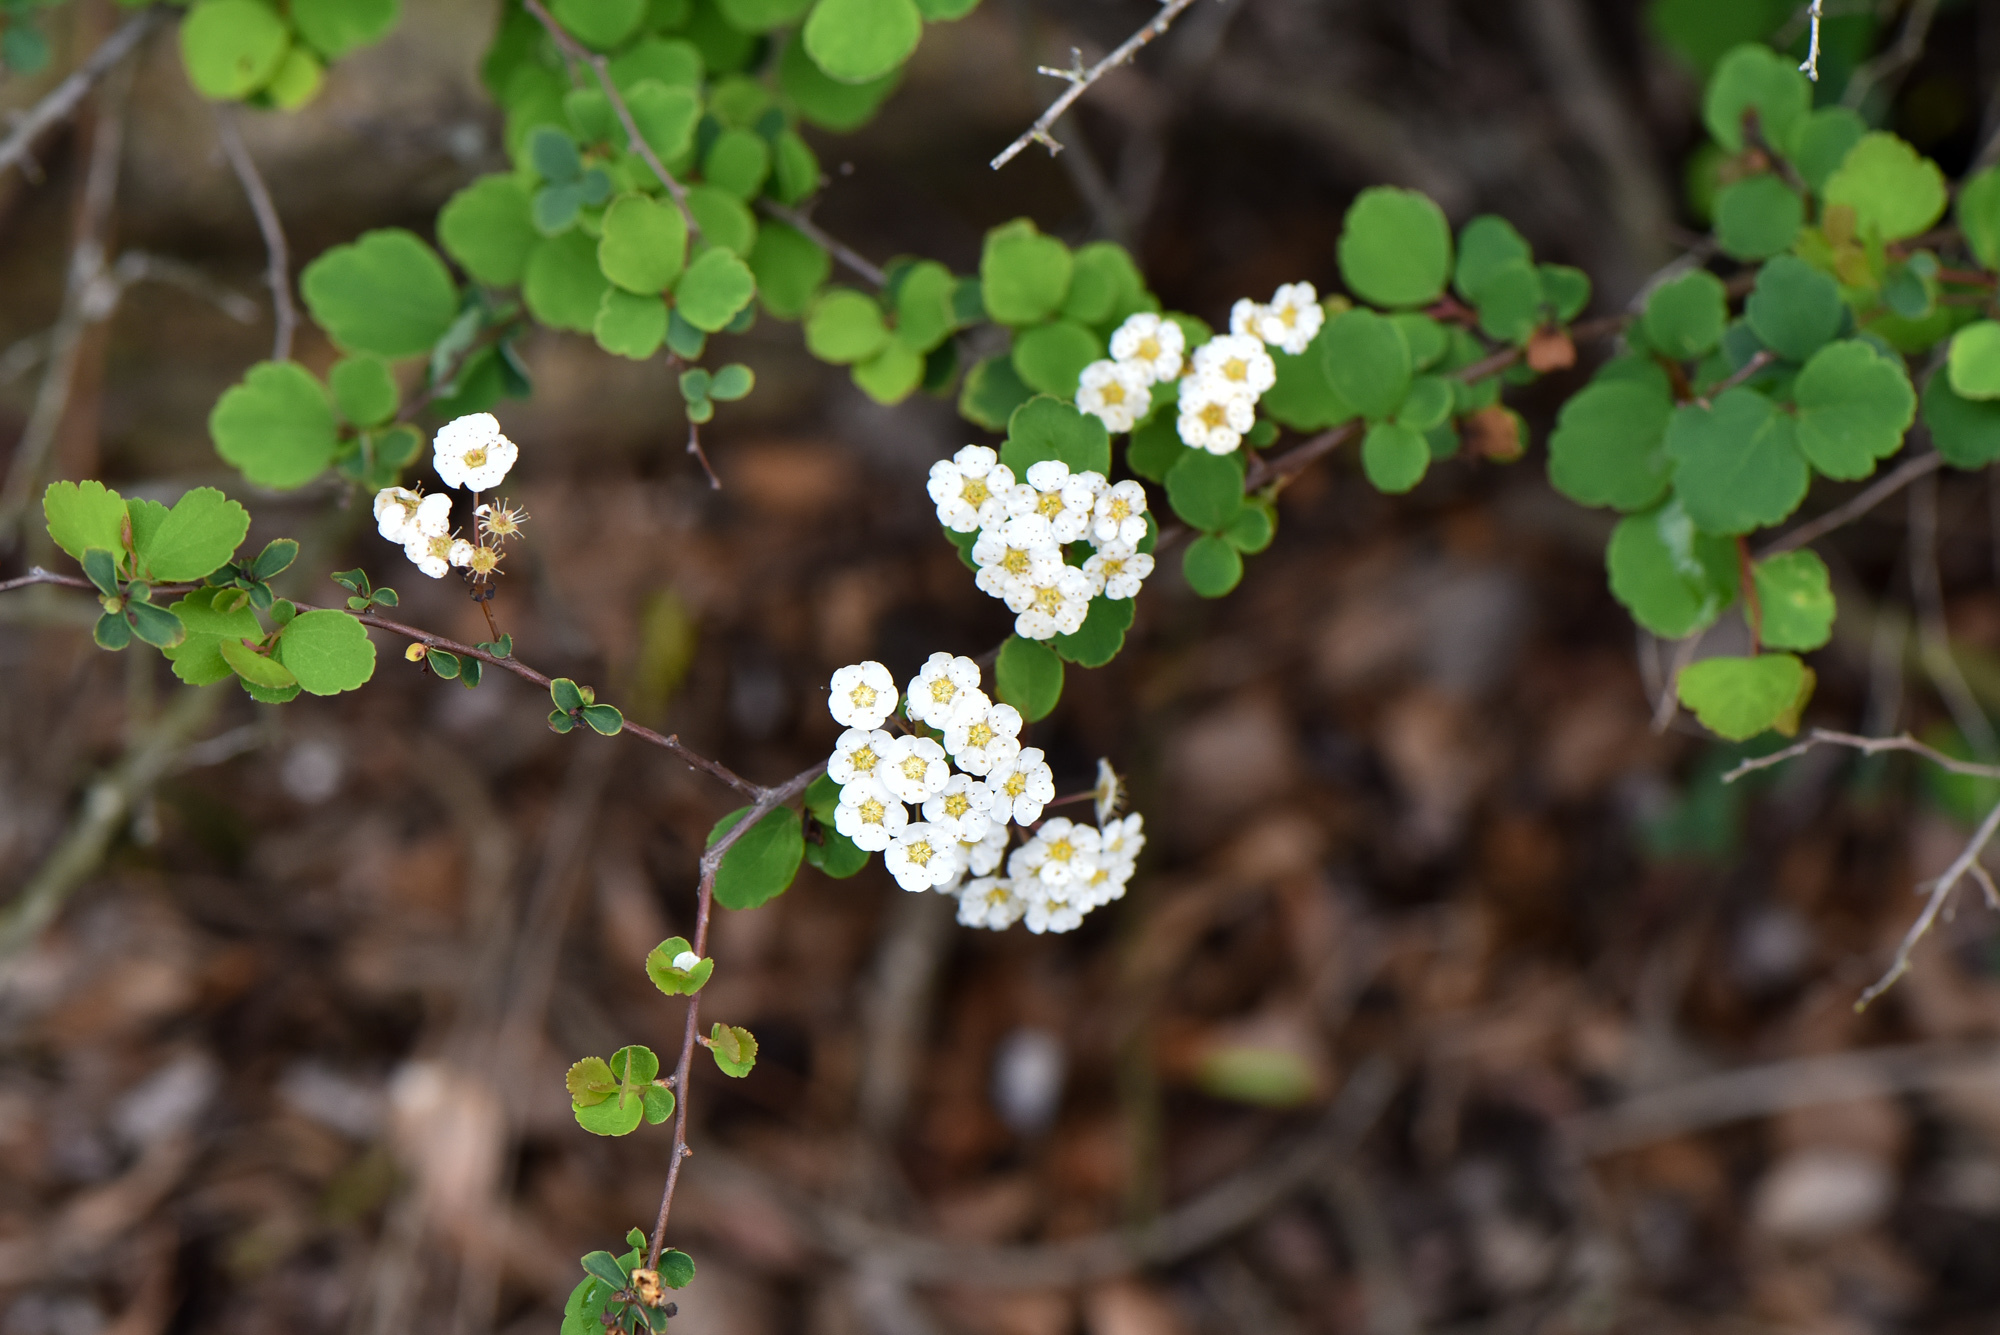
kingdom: Plantae
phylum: Tracheophyta
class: Magnoliopsida
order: Rosales
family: Rosaceae
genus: Spiraea
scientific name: Spiraea blumei
